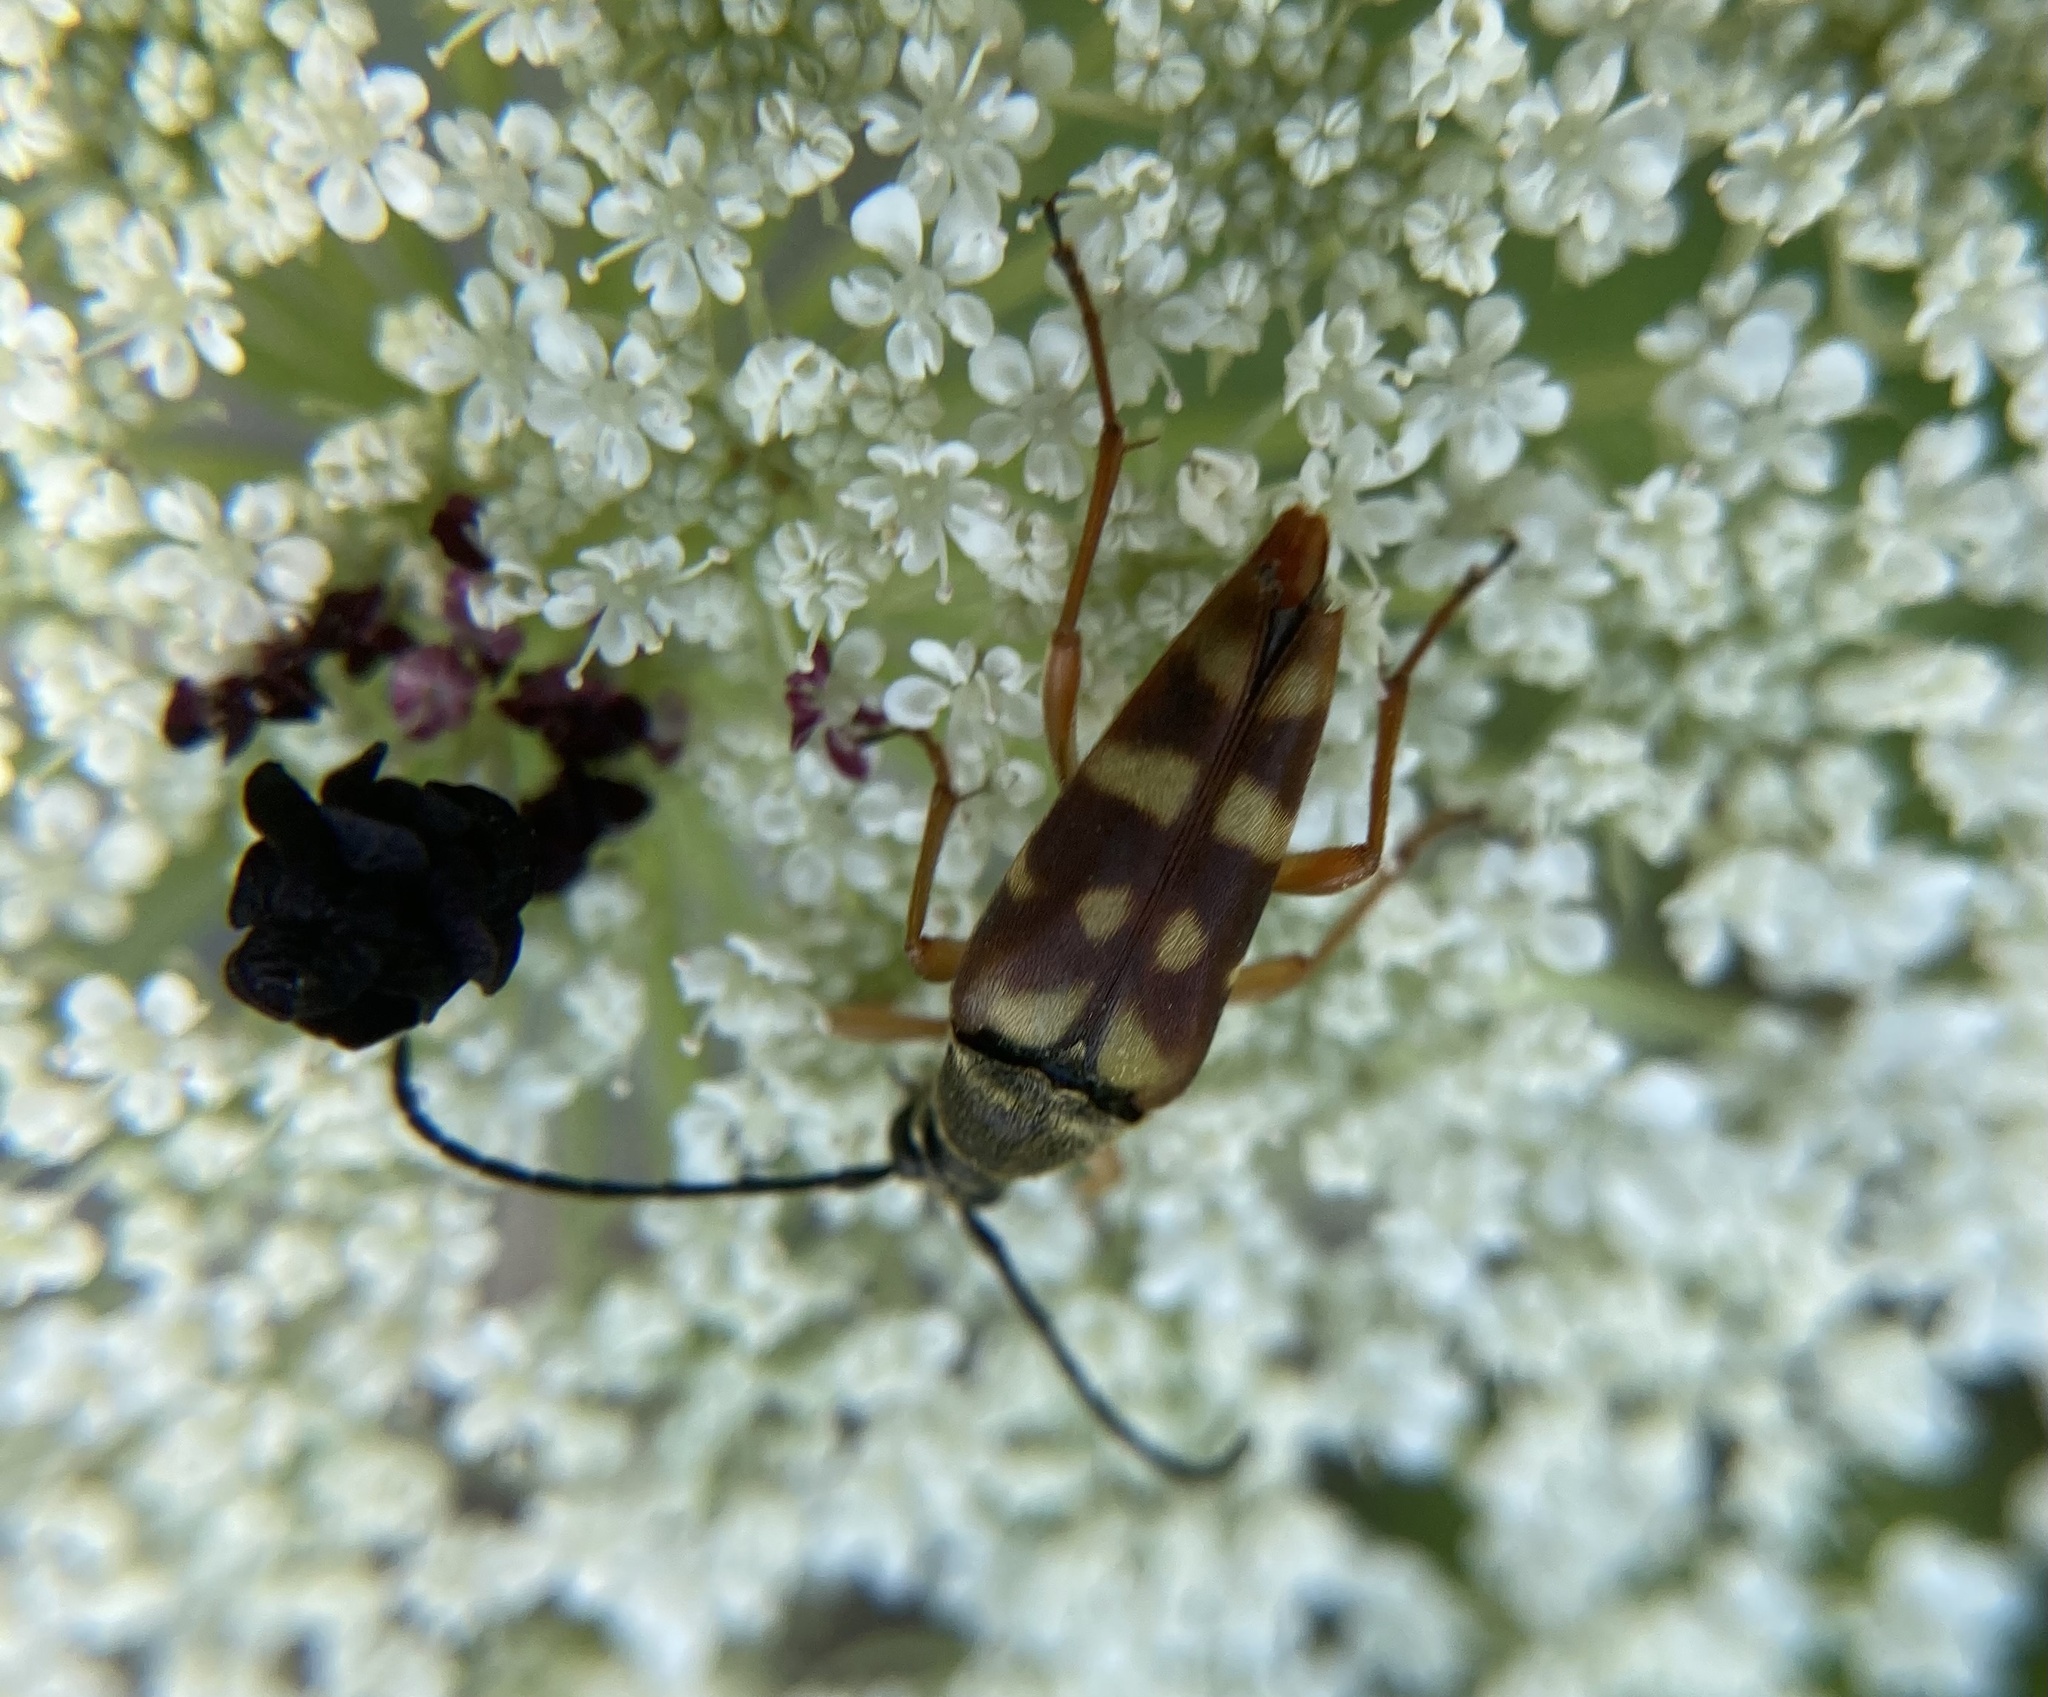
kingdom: Animalia
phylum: Arthropoda
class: Insecta
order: Coleoptera
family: Cerambycidae
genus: Typocerus
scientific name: Typocerus velutinus
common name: Banded longhorn beetle
